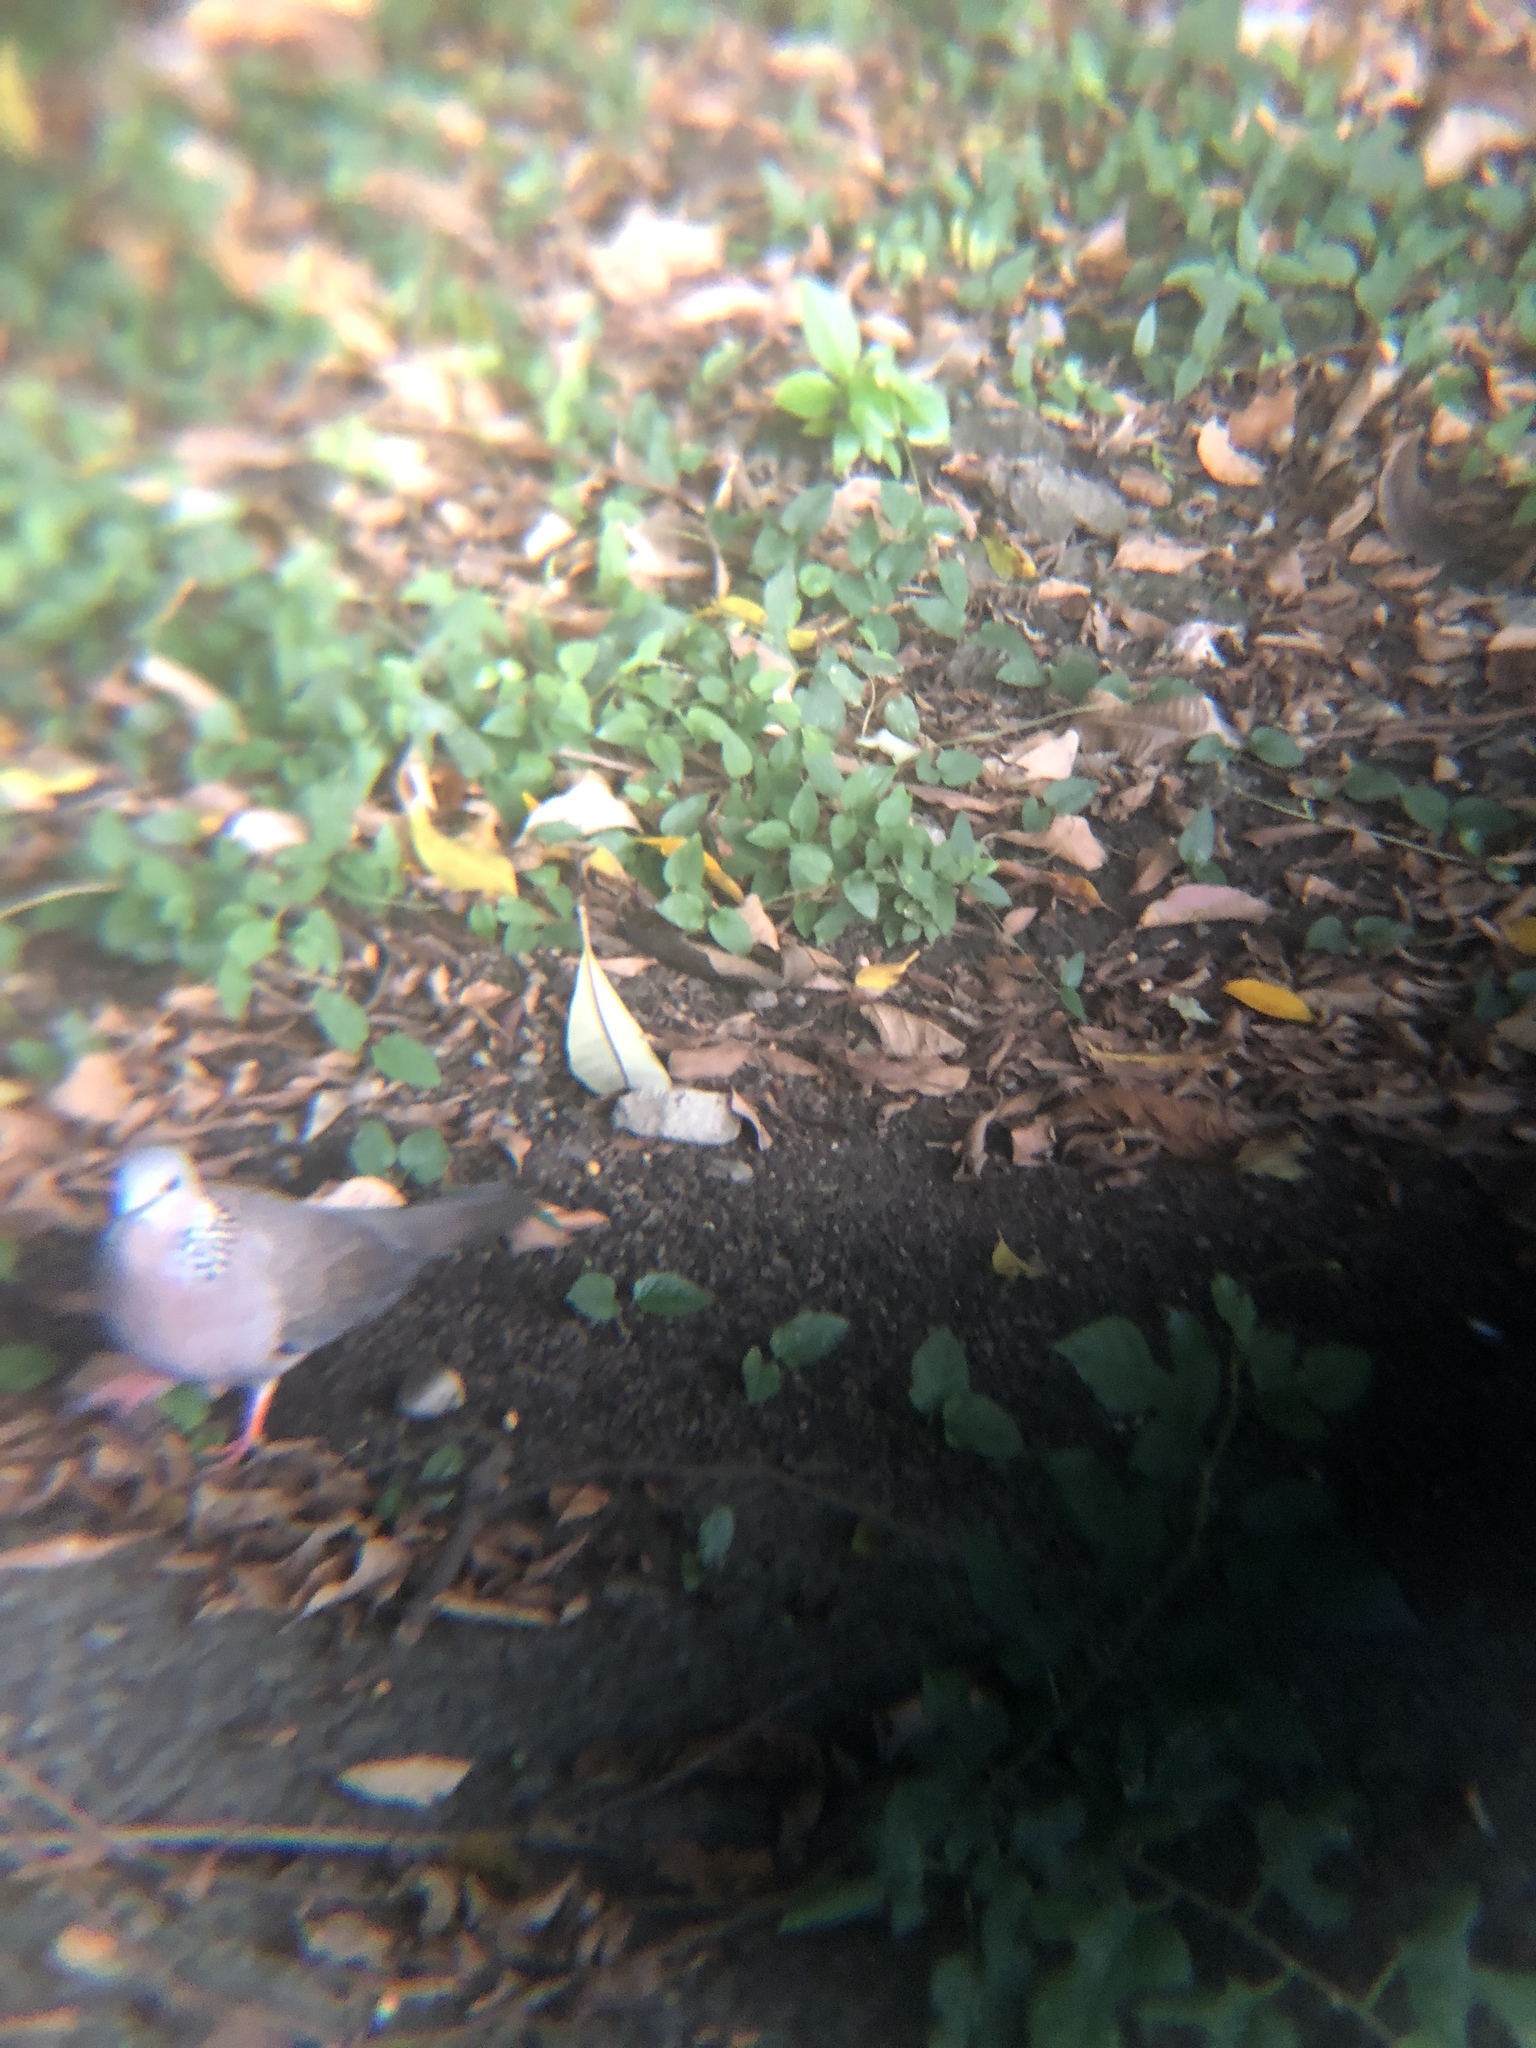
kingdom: Animalia
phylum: Chordata
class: Aves
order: Columbiformes
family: Columbidae
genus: Spilopelia
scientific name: Spilopelia chinensis
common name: Spotted dove
